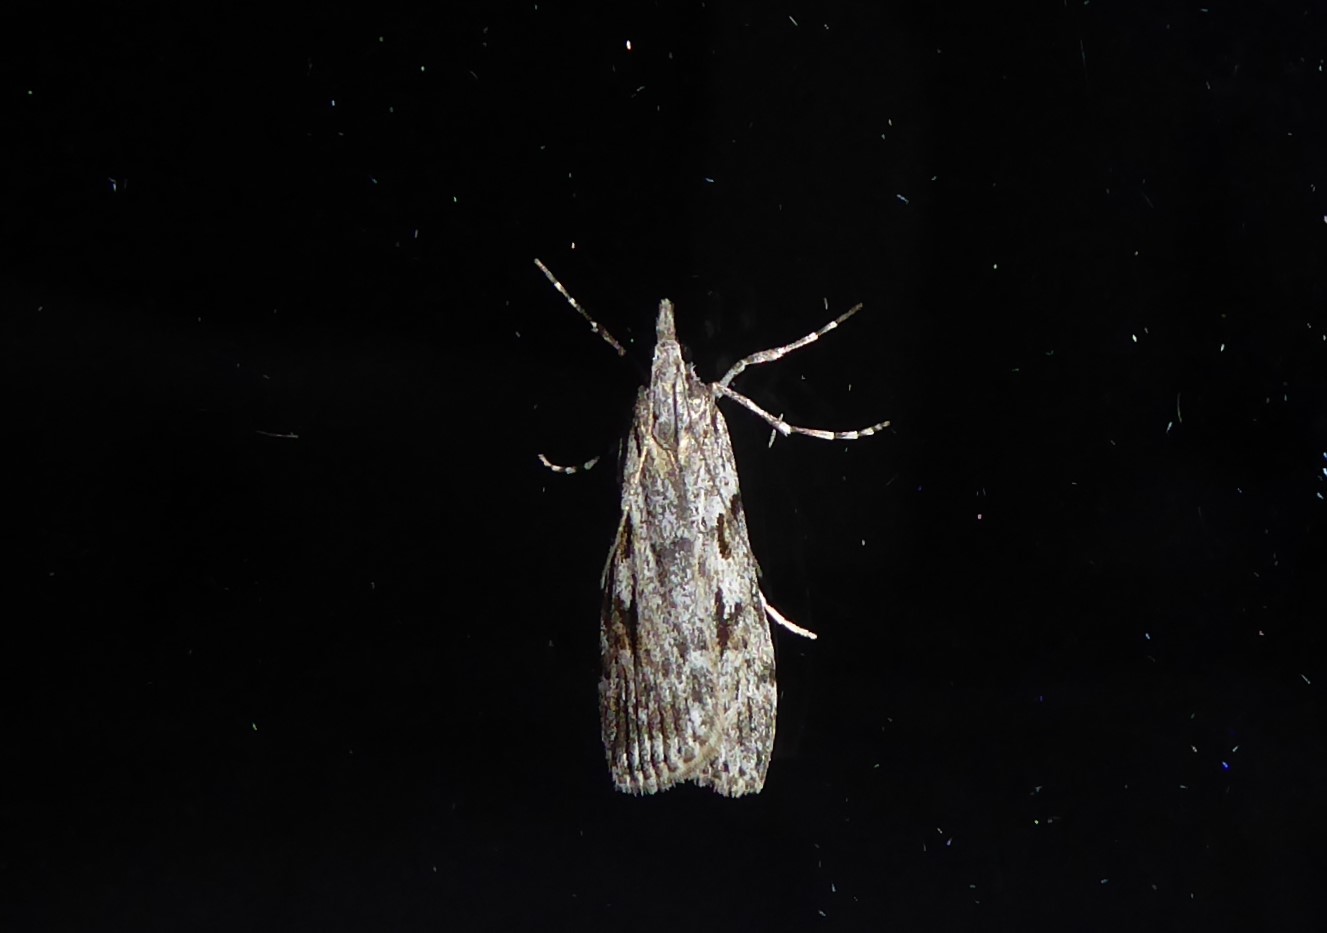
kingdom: Animalia
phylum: Arthropoda
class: Insecta
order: Lepidoptera
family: Crambidae
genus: Scoparia
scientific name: Scoparia halopis
